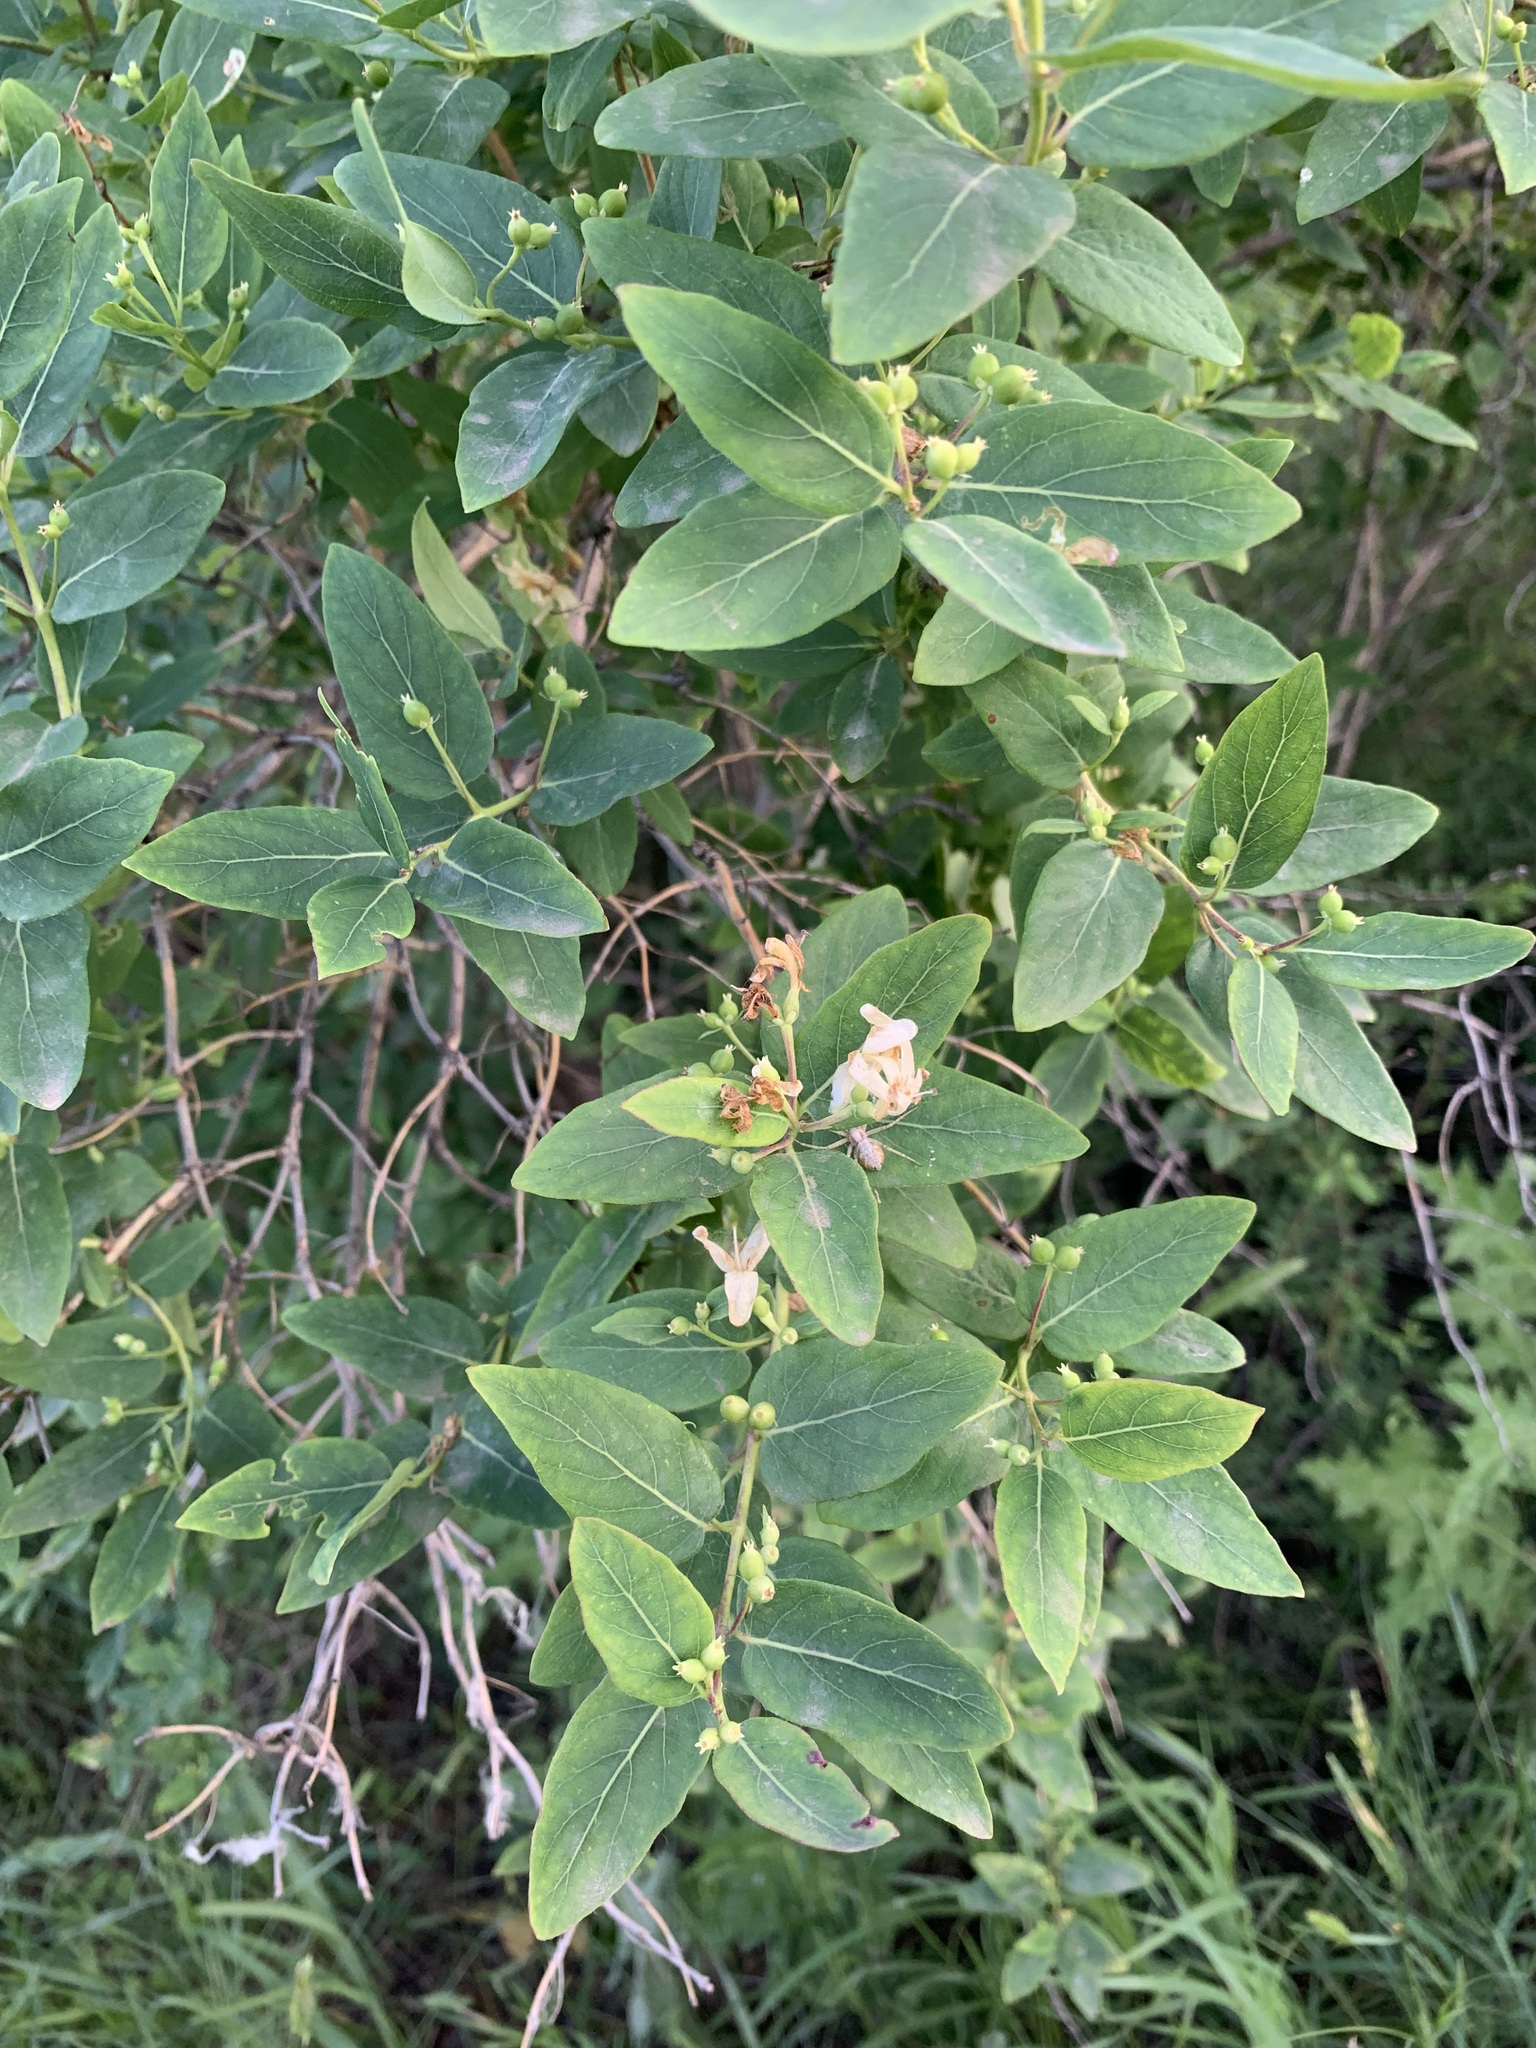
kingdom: Plantae
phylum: Tracheophyta
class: Magnoliopsida
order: Dipsacales
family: Caprifoliaceae
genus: Lonicera
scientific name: Lonicera tatarica
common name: Tatarian honeysuckle
